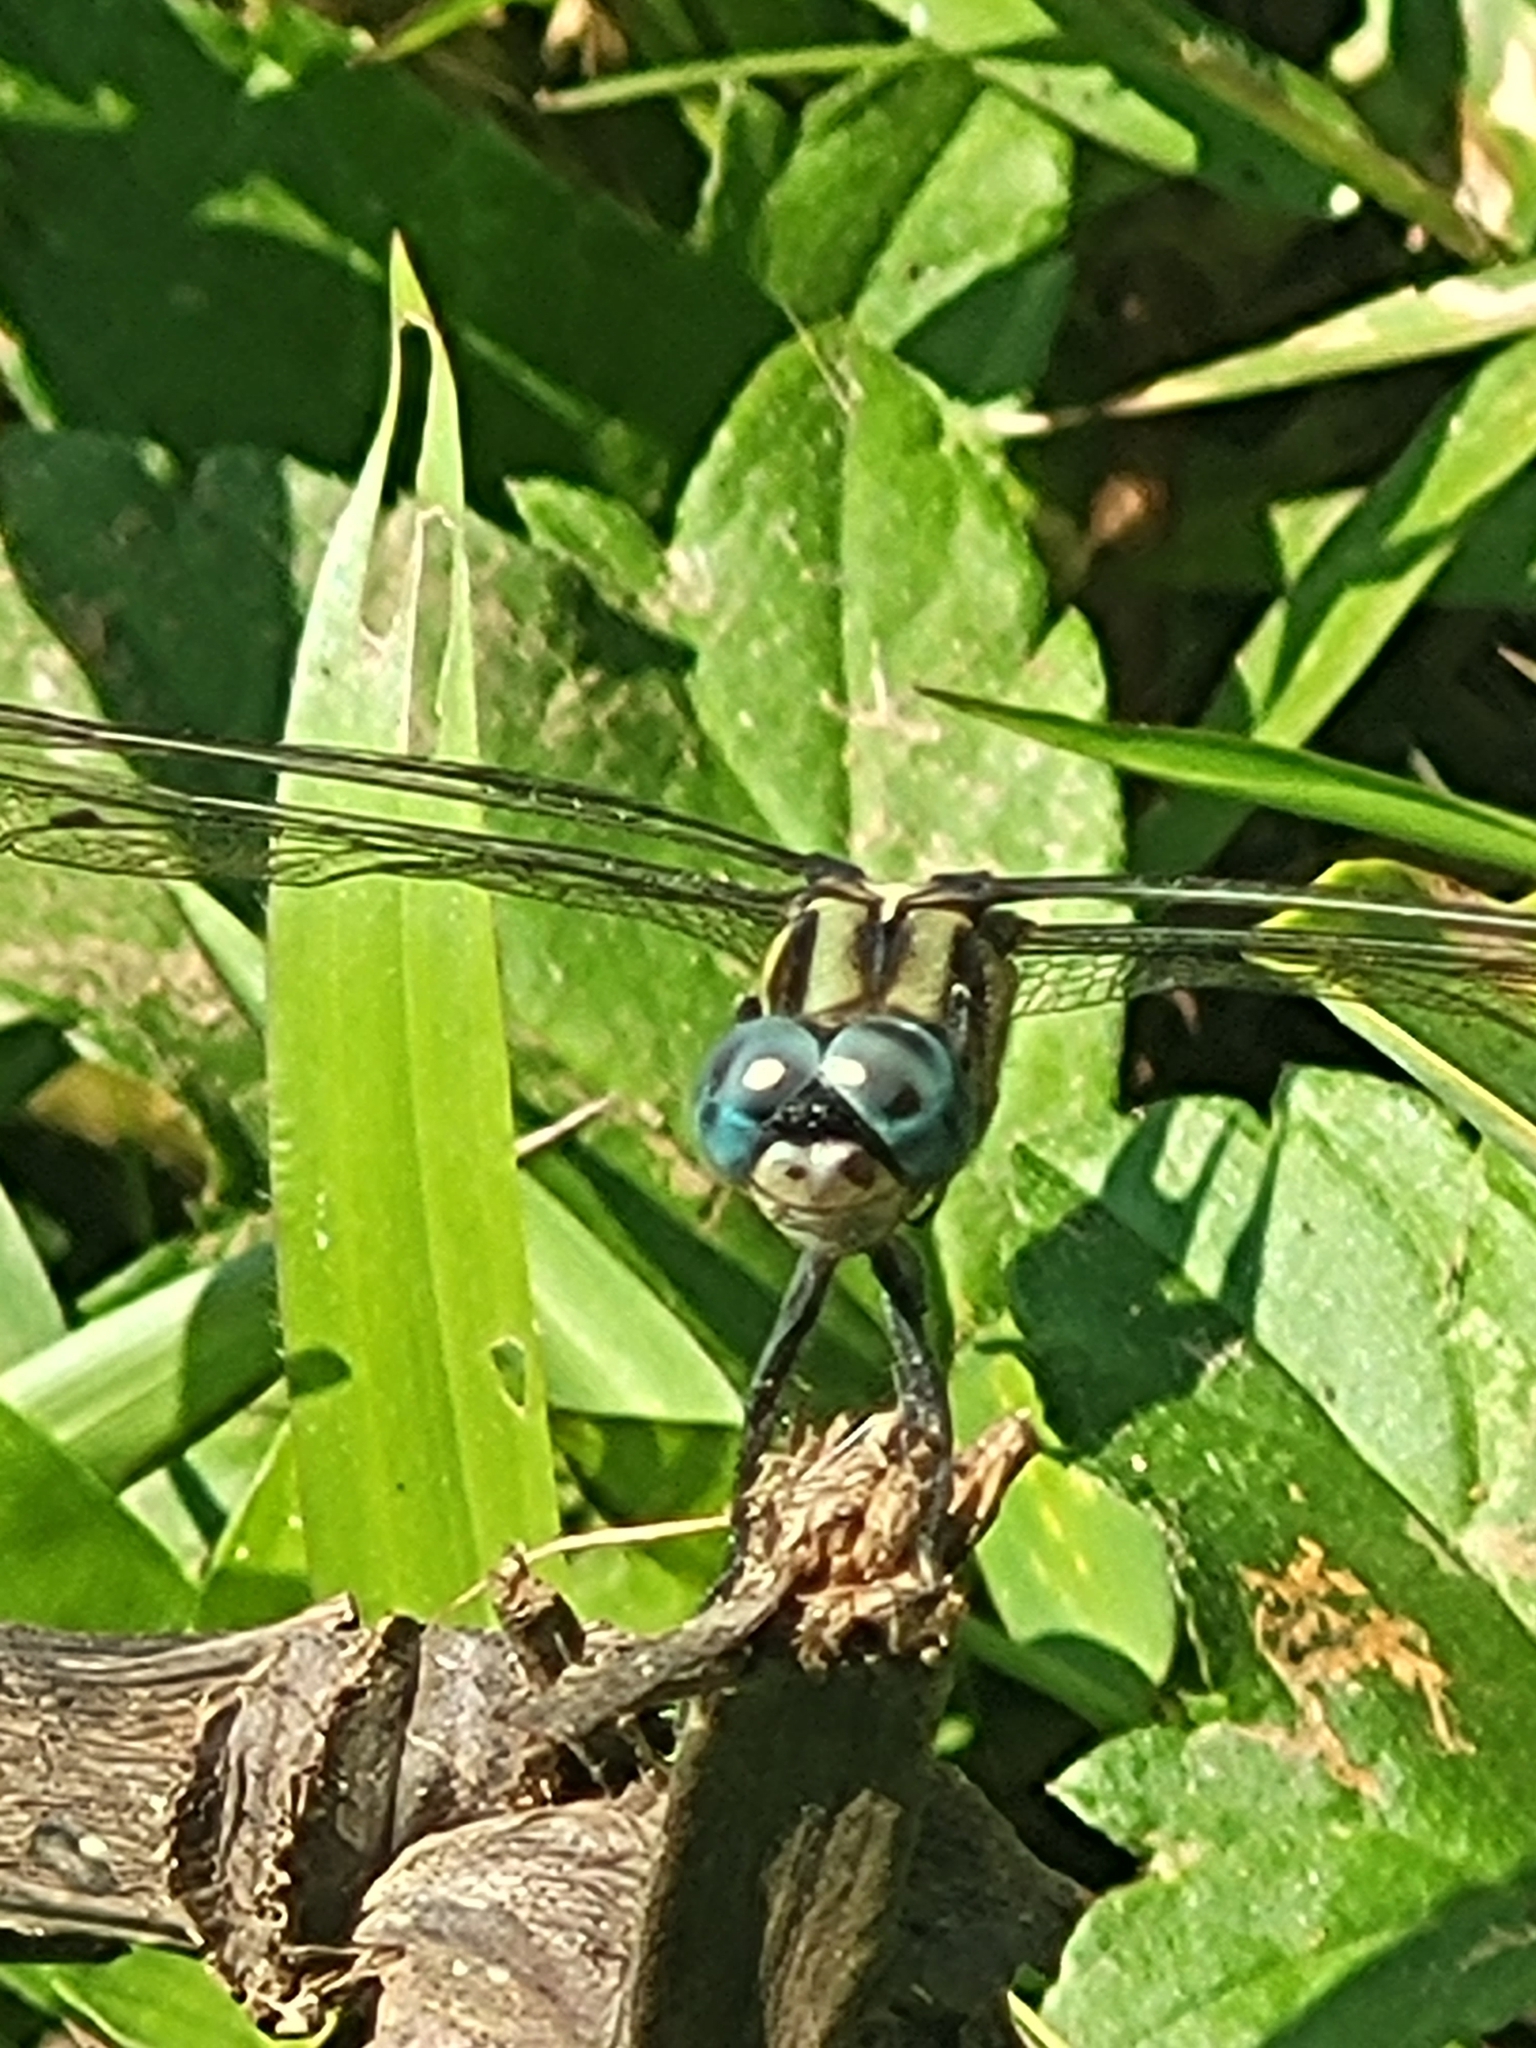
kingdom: Animalia
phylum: Arthropoda
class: Insecta
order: Odonata
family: Libellulidae
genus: Orthetrum
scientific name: Orthetrum luzonicum
